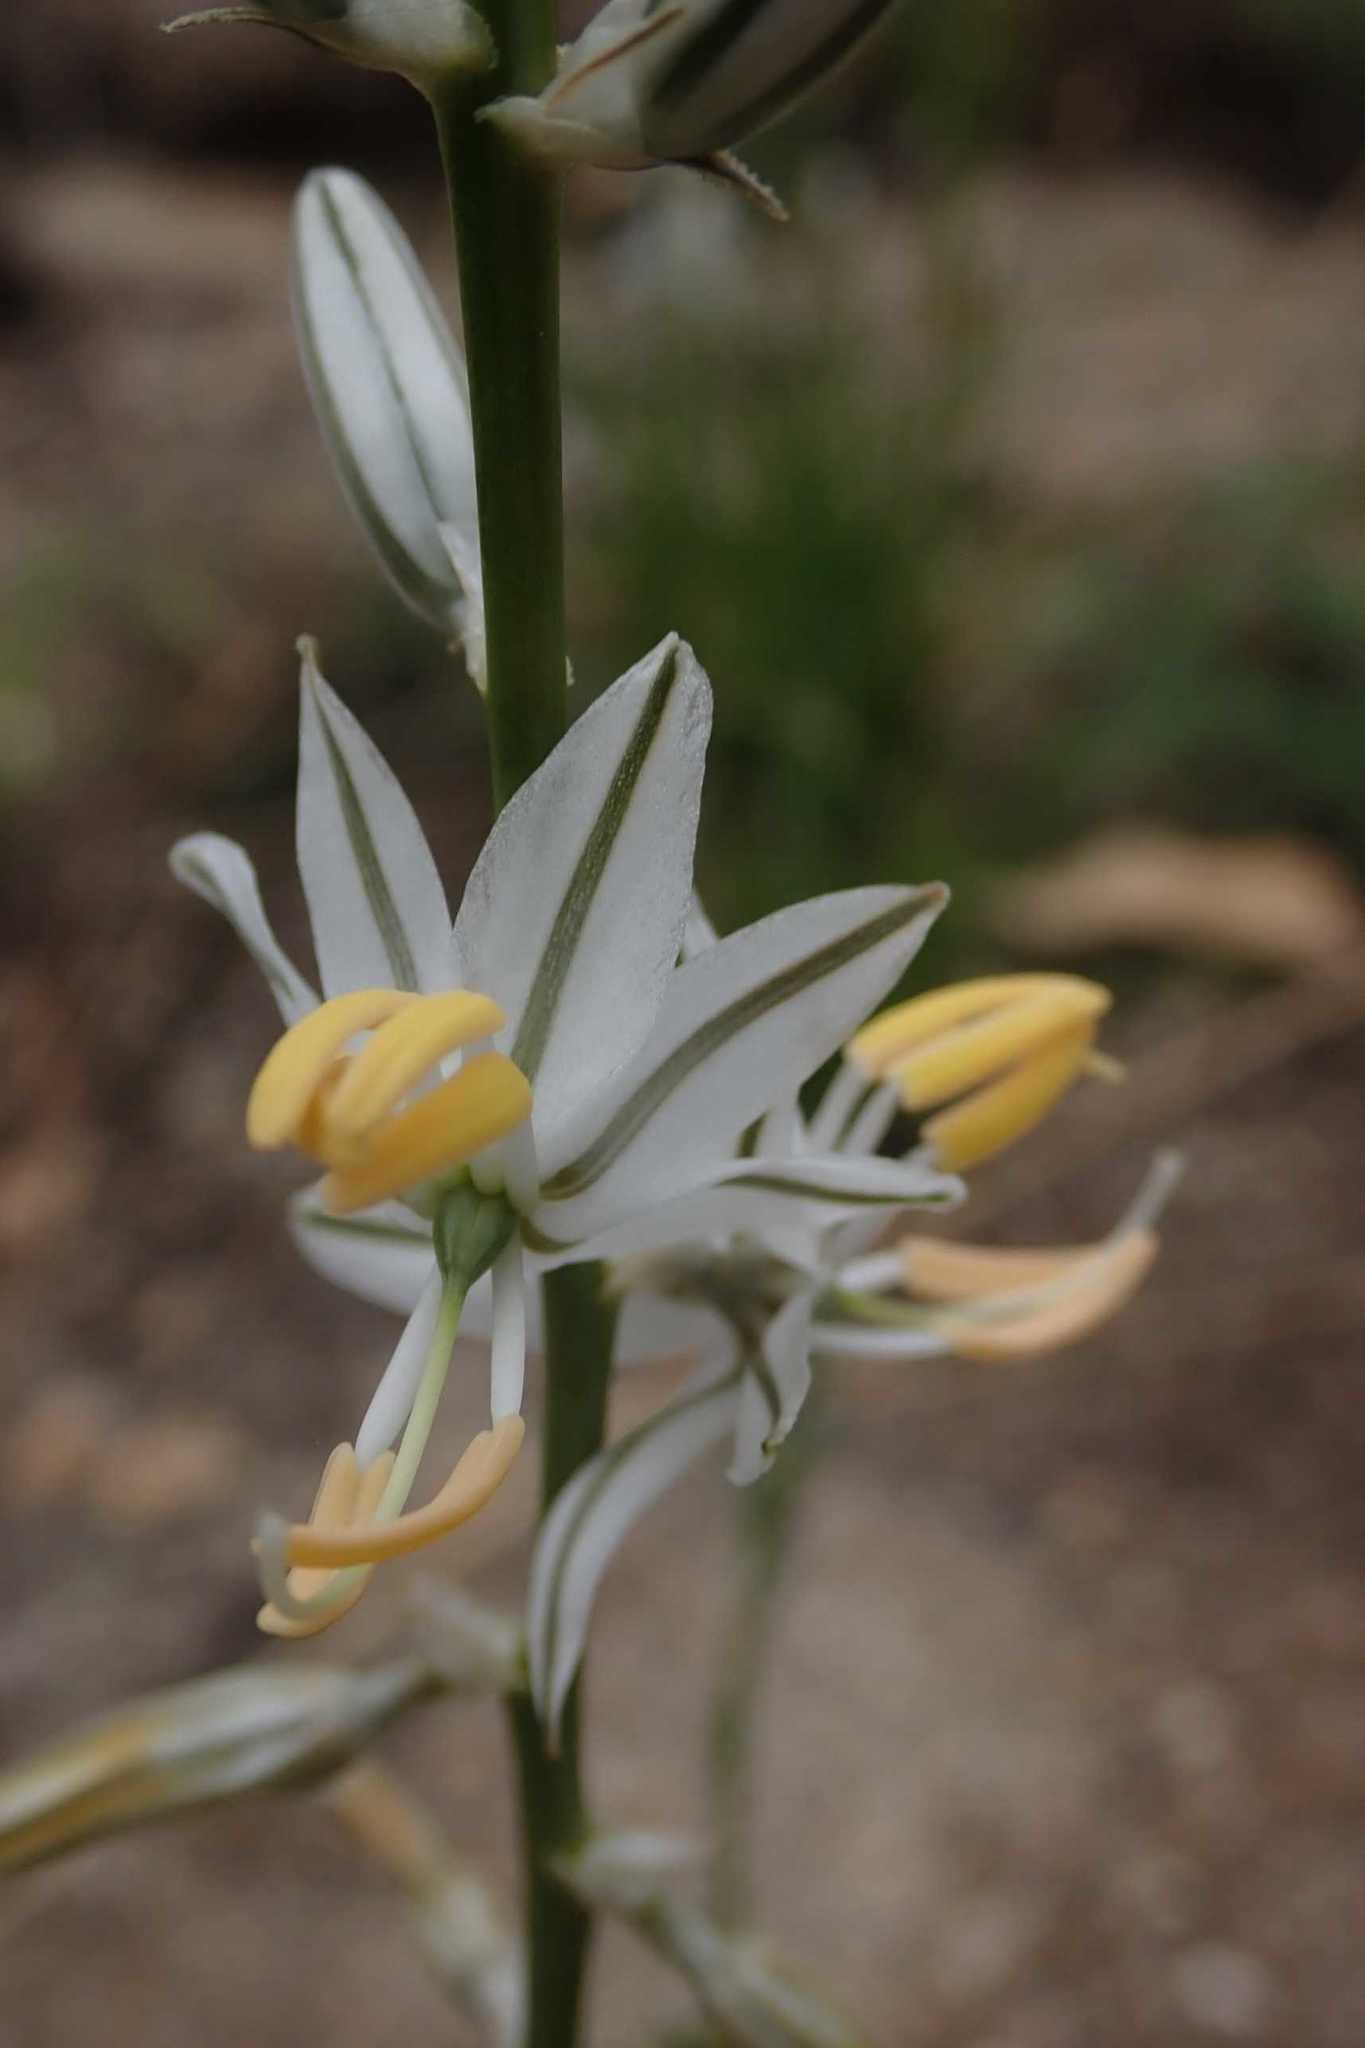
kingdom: Plantae
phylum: Tracheophyta
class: Liliopsida
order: Asparagales
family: Asparagaceae
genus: Chlorophytum
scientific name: Chlorophytum recurvifolium
